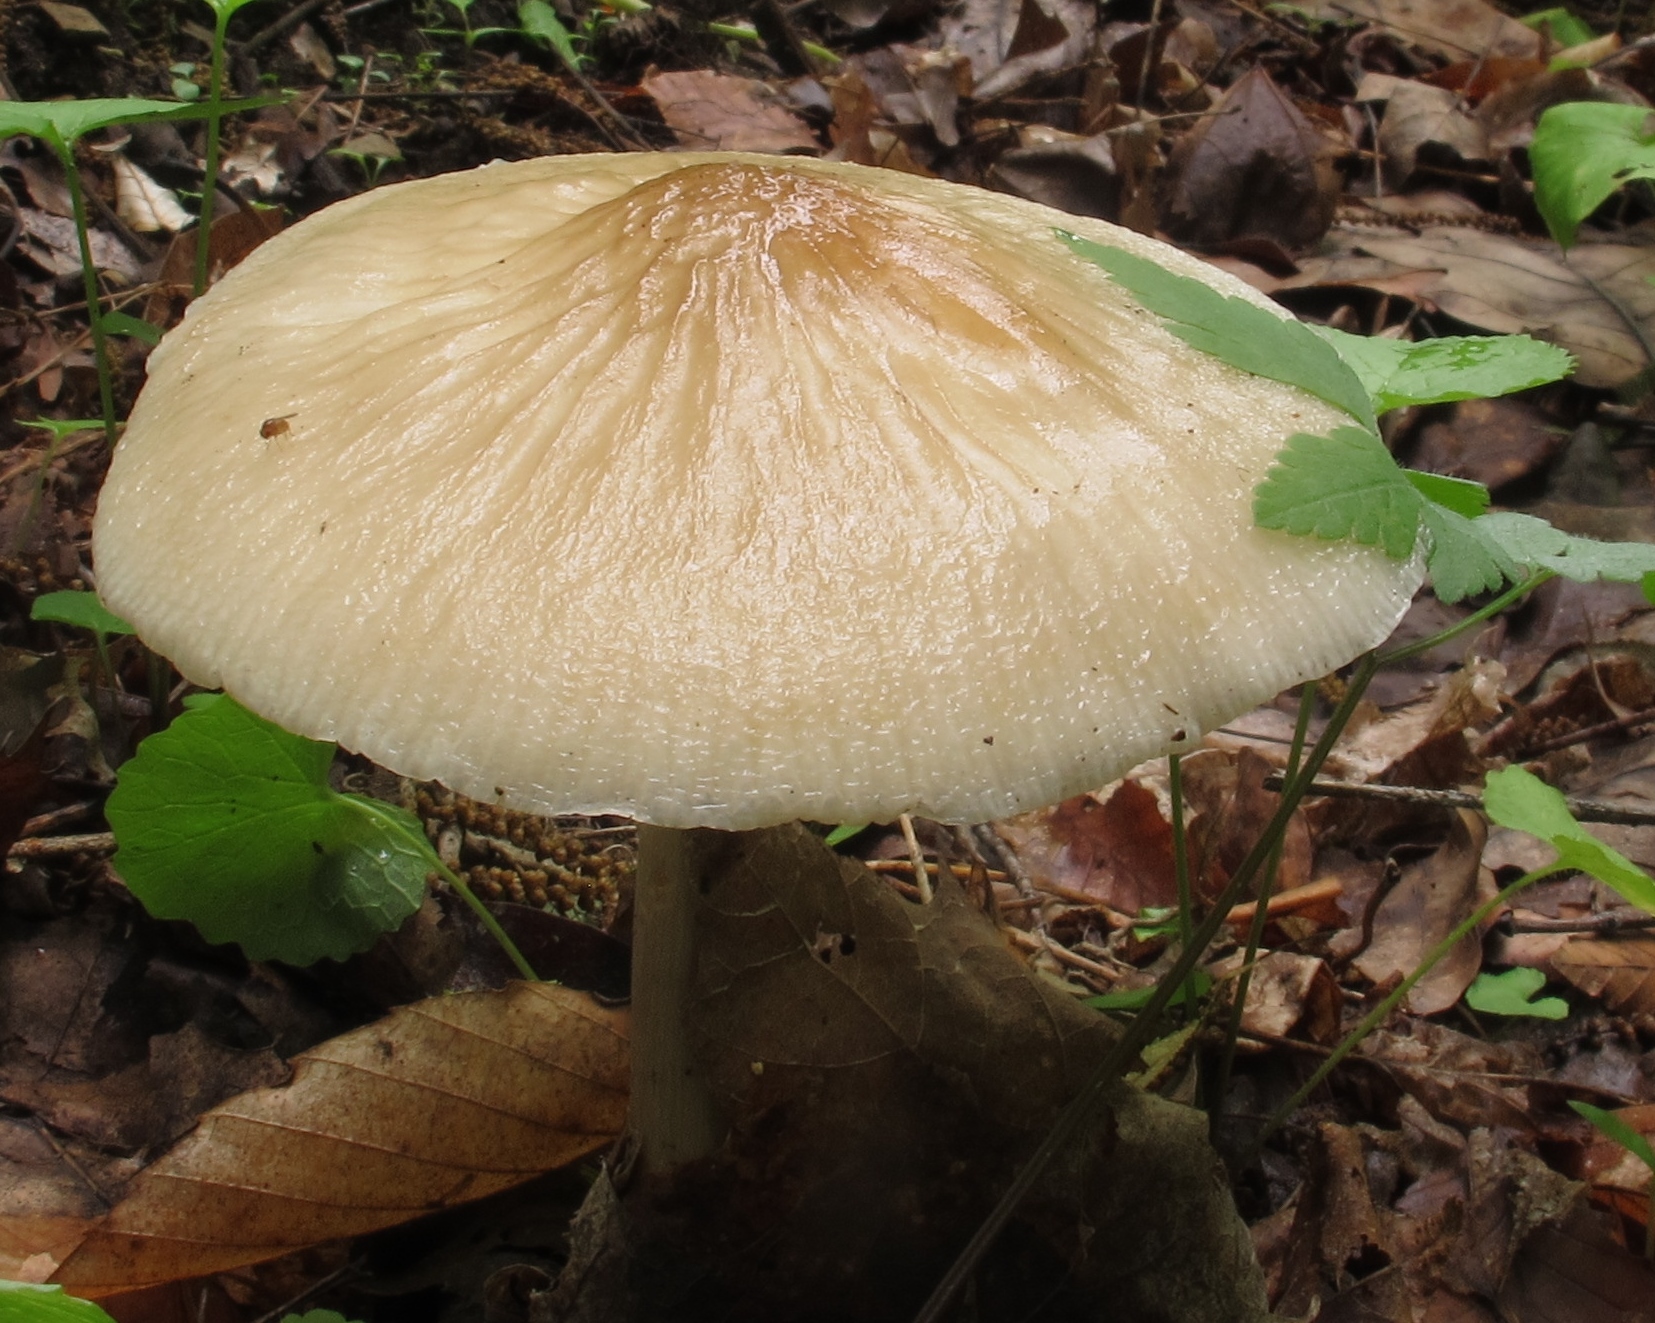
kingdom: Fungi
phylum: Basidiomycota
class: Agaricomycetes
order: Agaricales
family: Physalacriaceae
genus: Hymenopellis
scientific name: Hymenopellis megalospora
